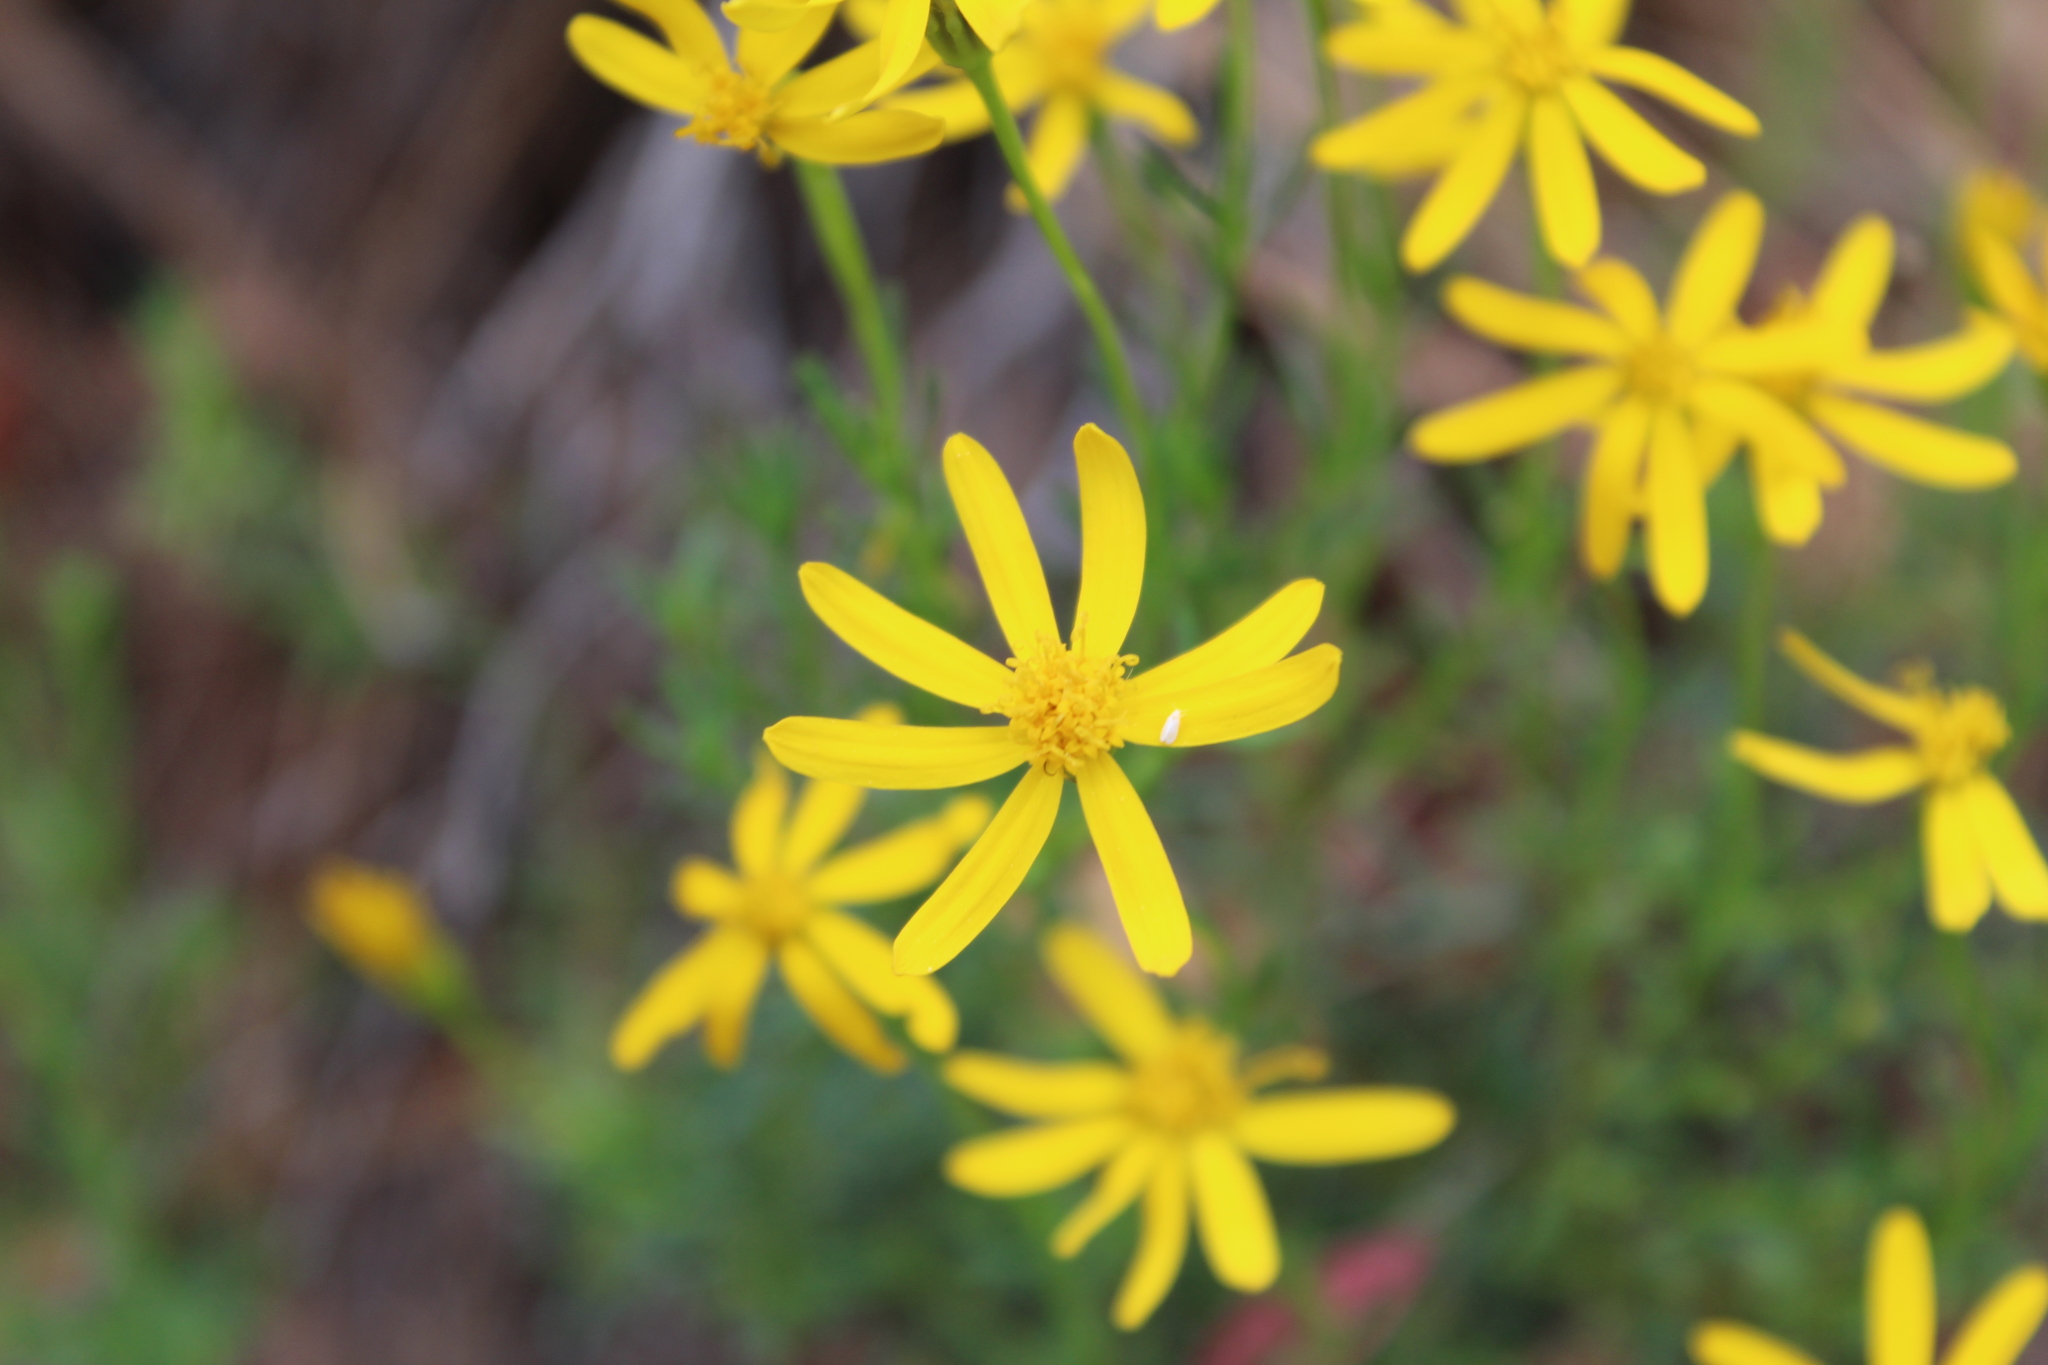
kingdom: Plantae
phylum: Tracheophyta
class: Magnoliopsida
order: Asterales
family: Asteraceae
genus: Chrysactinia
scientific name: Chrysactinia mexicana
